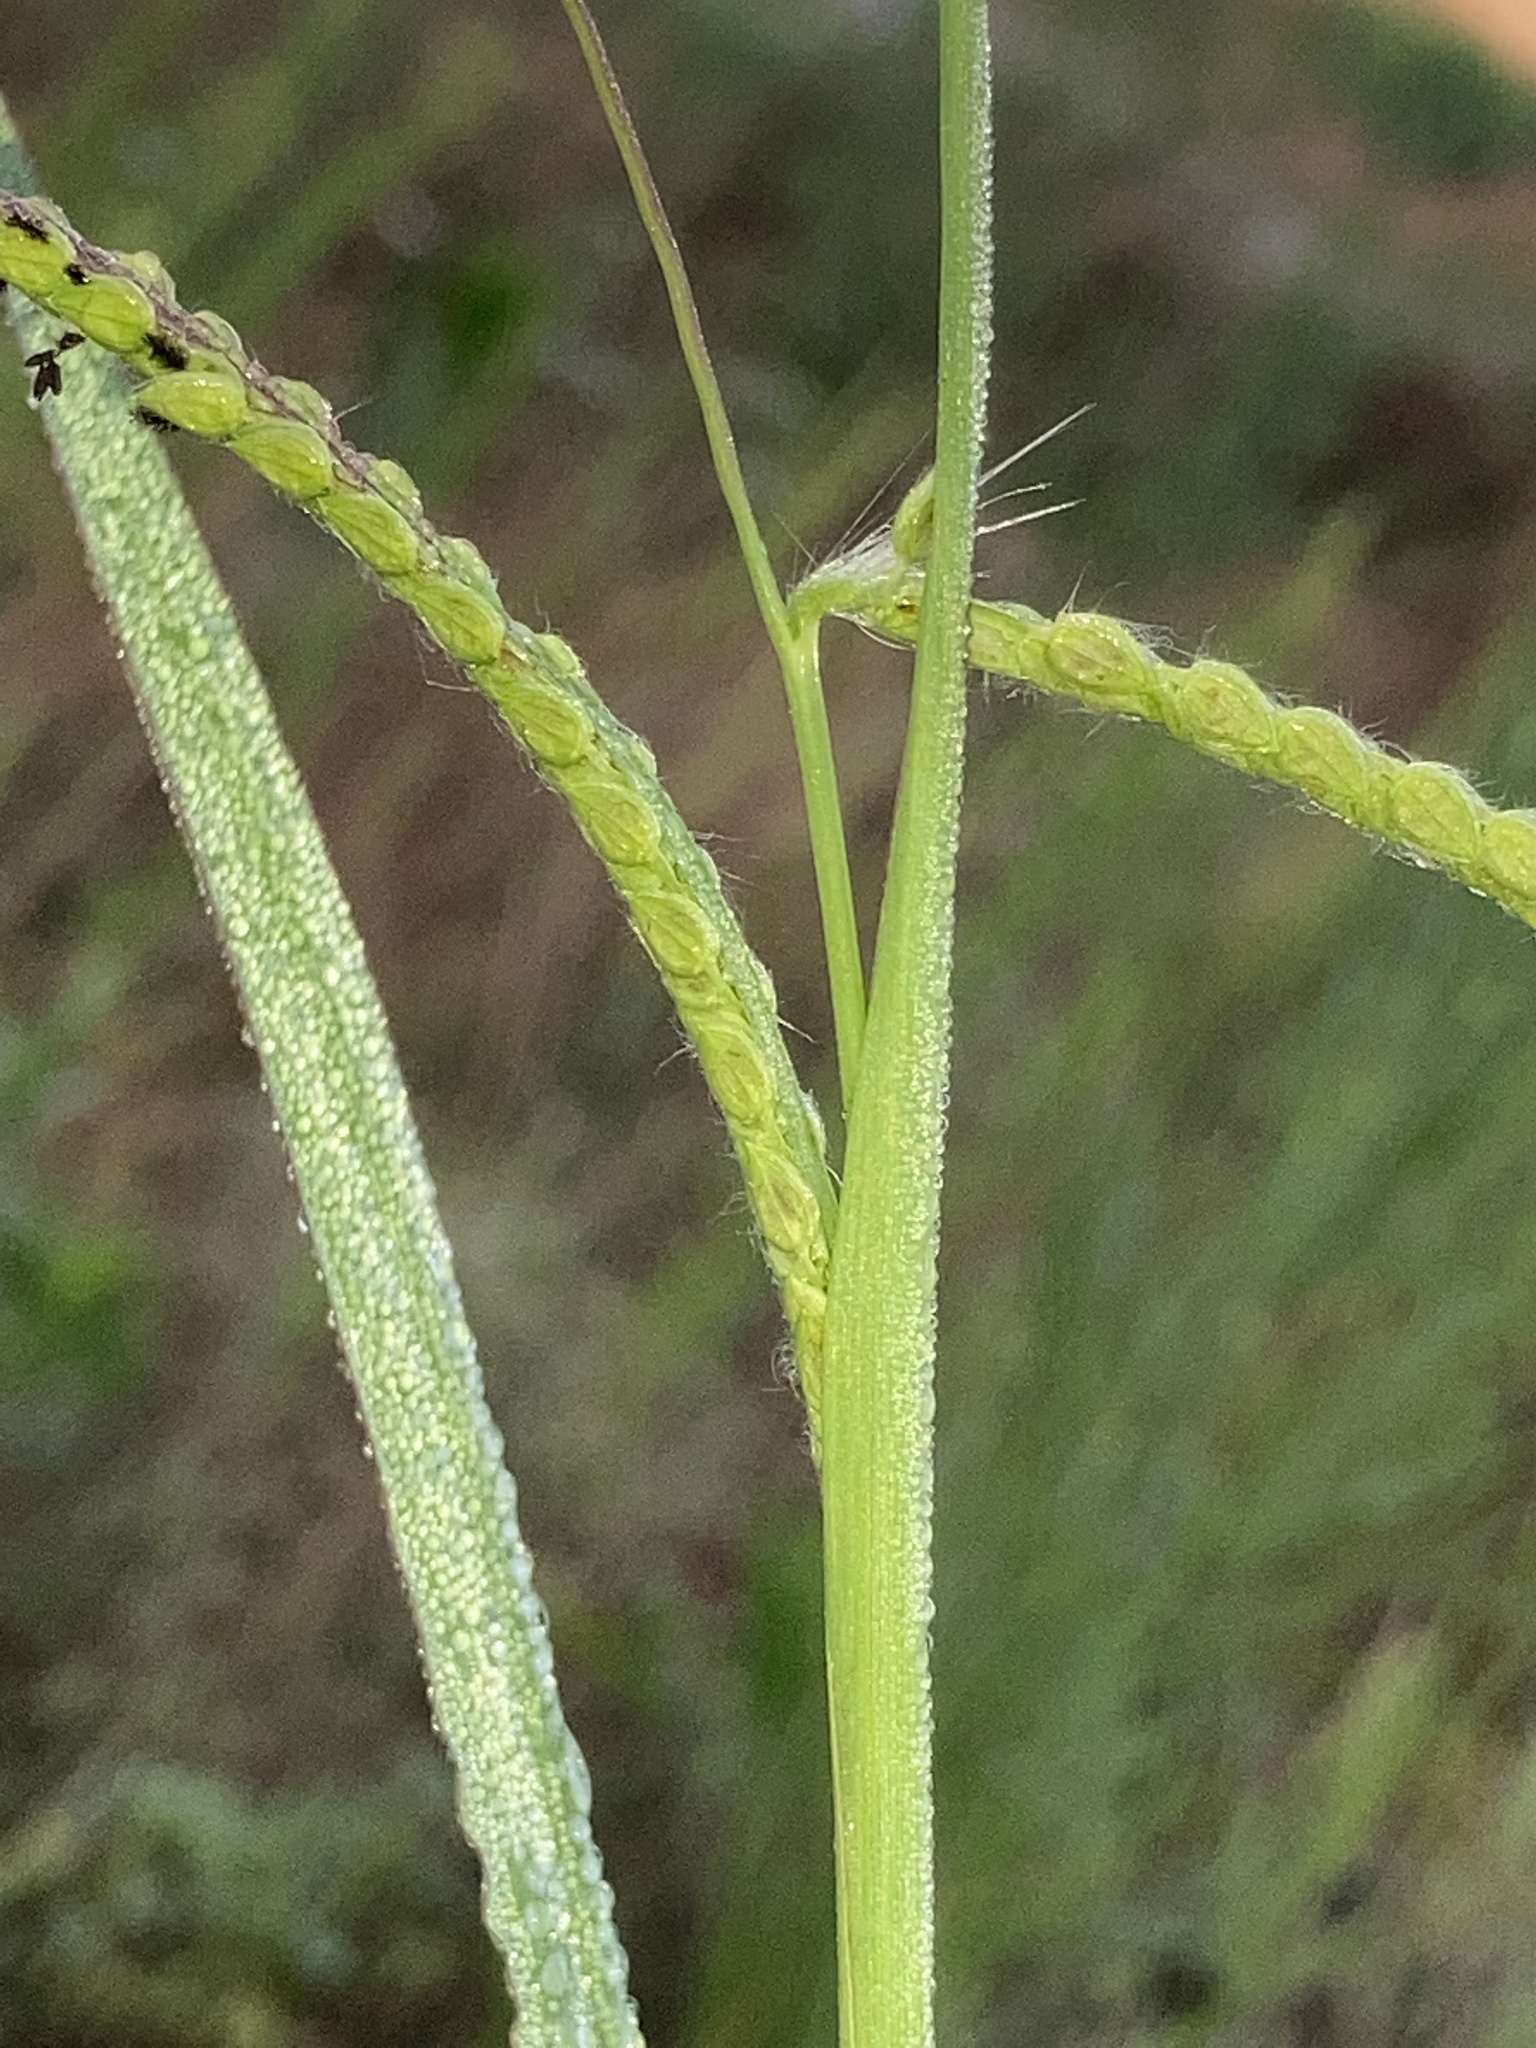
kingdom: Plantae
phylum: Tracheophyta
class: Liliopsida
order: Poales
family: Poaceae
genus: Paspalum
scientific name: Paspalum dilatatum
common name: Dallisgrass
